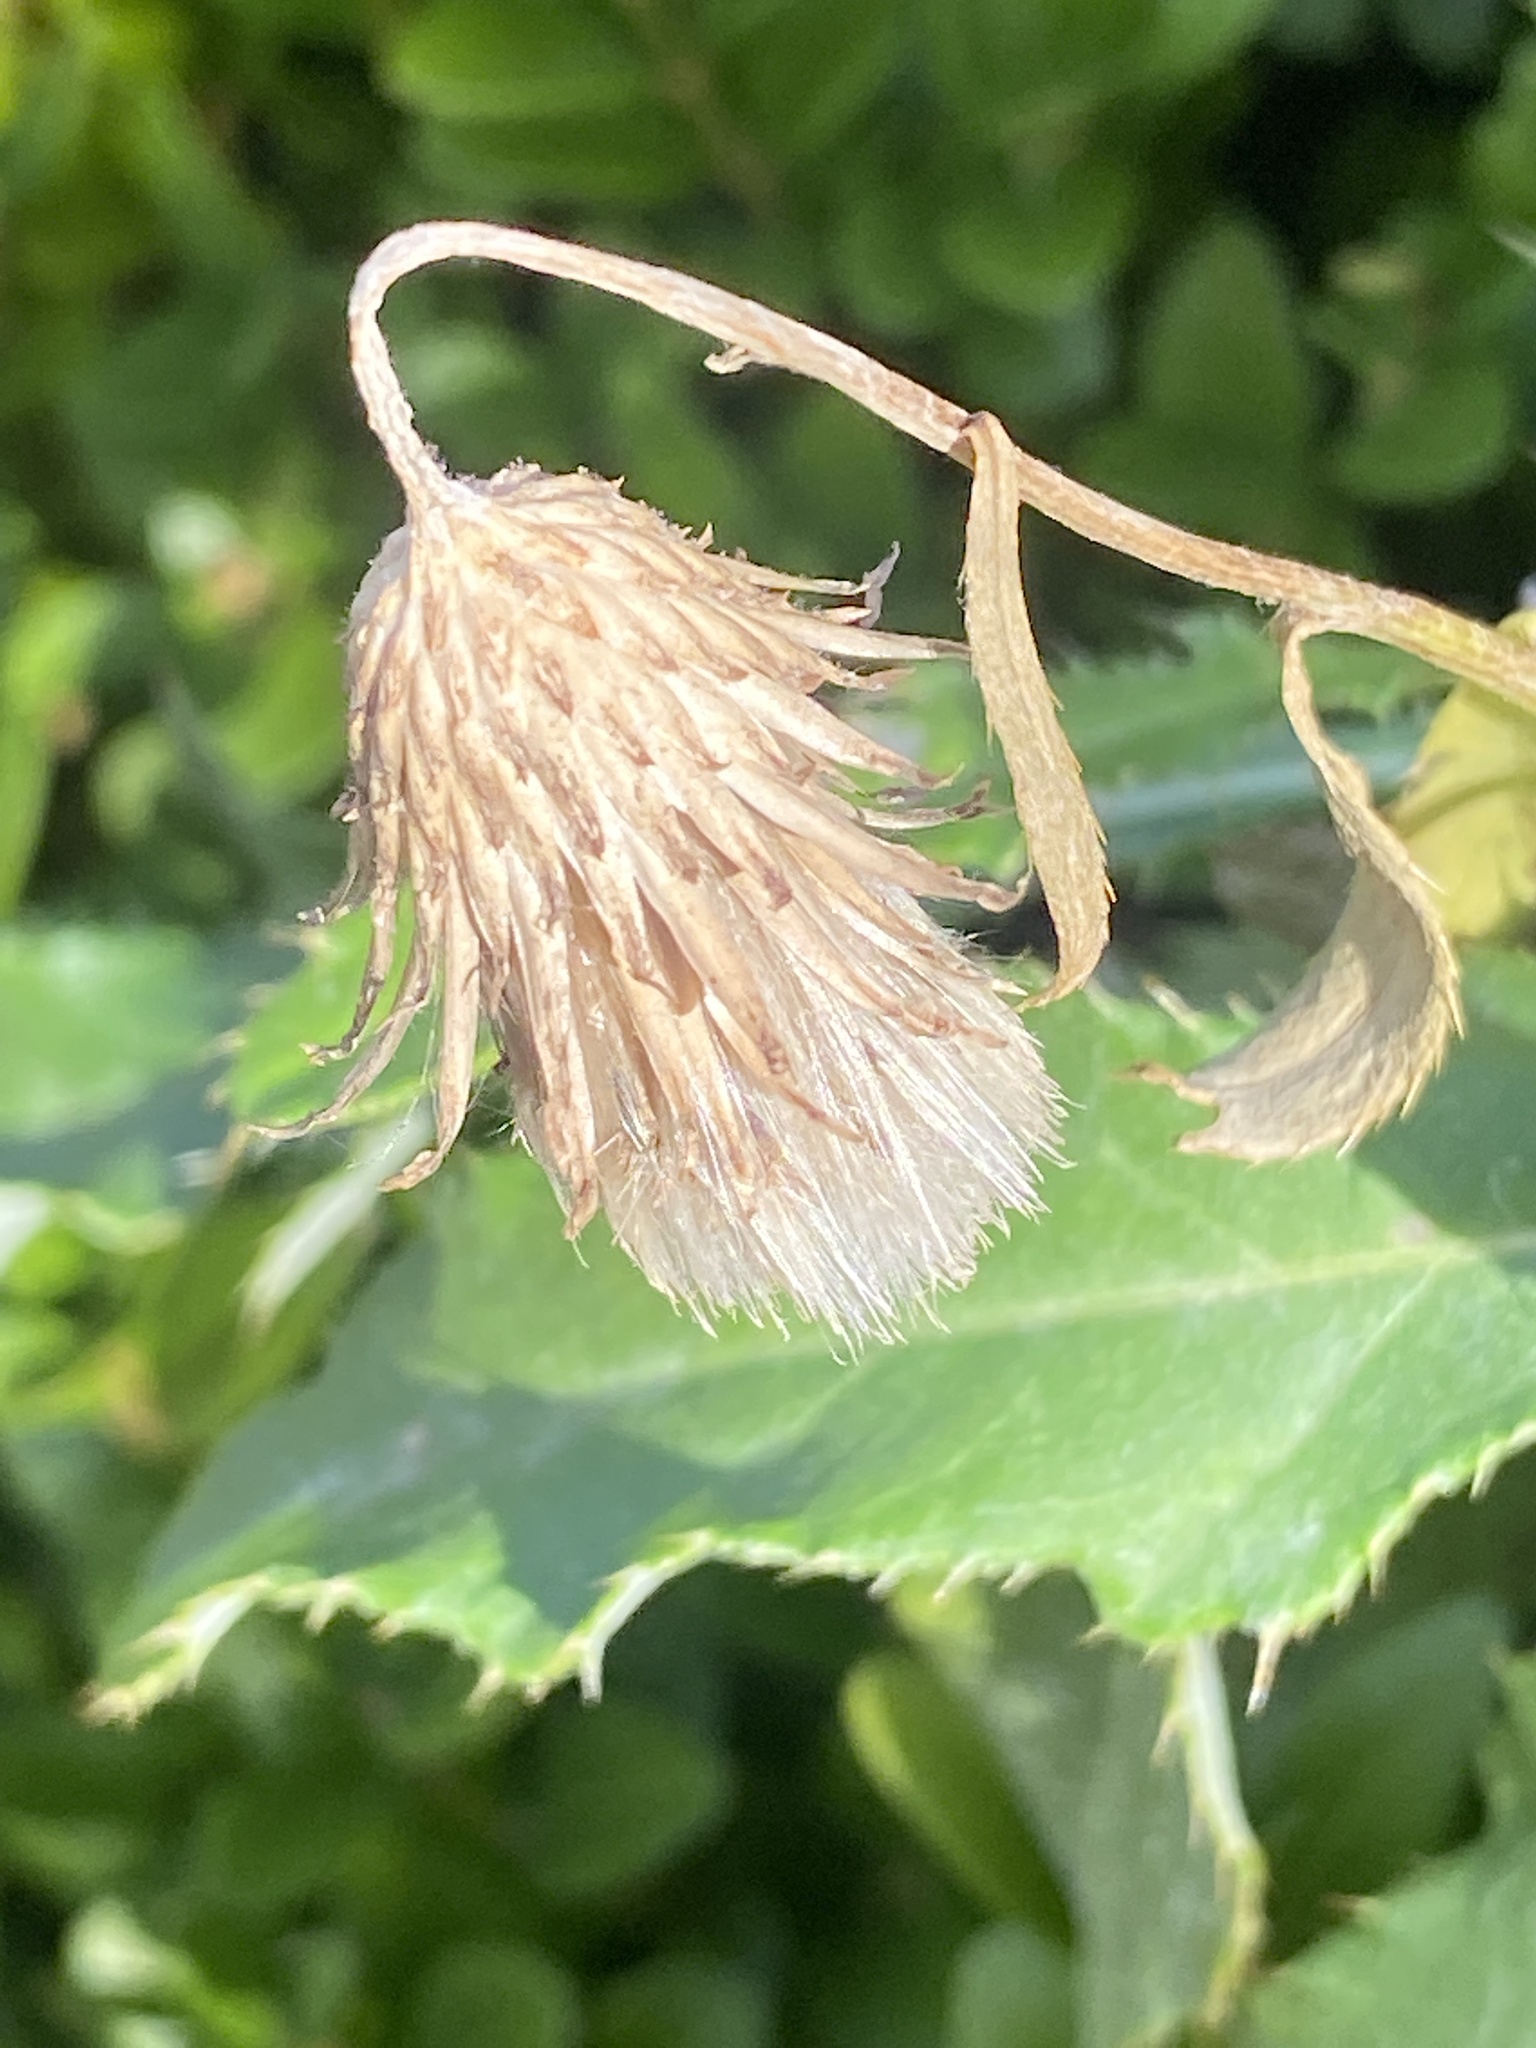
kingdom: Plantae
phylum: Tracheophyta
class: Magnoliopsida
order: Asterales
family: Asteraceae
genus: Cirsium
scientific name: Cirsium arvense
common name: Creeping thistle
